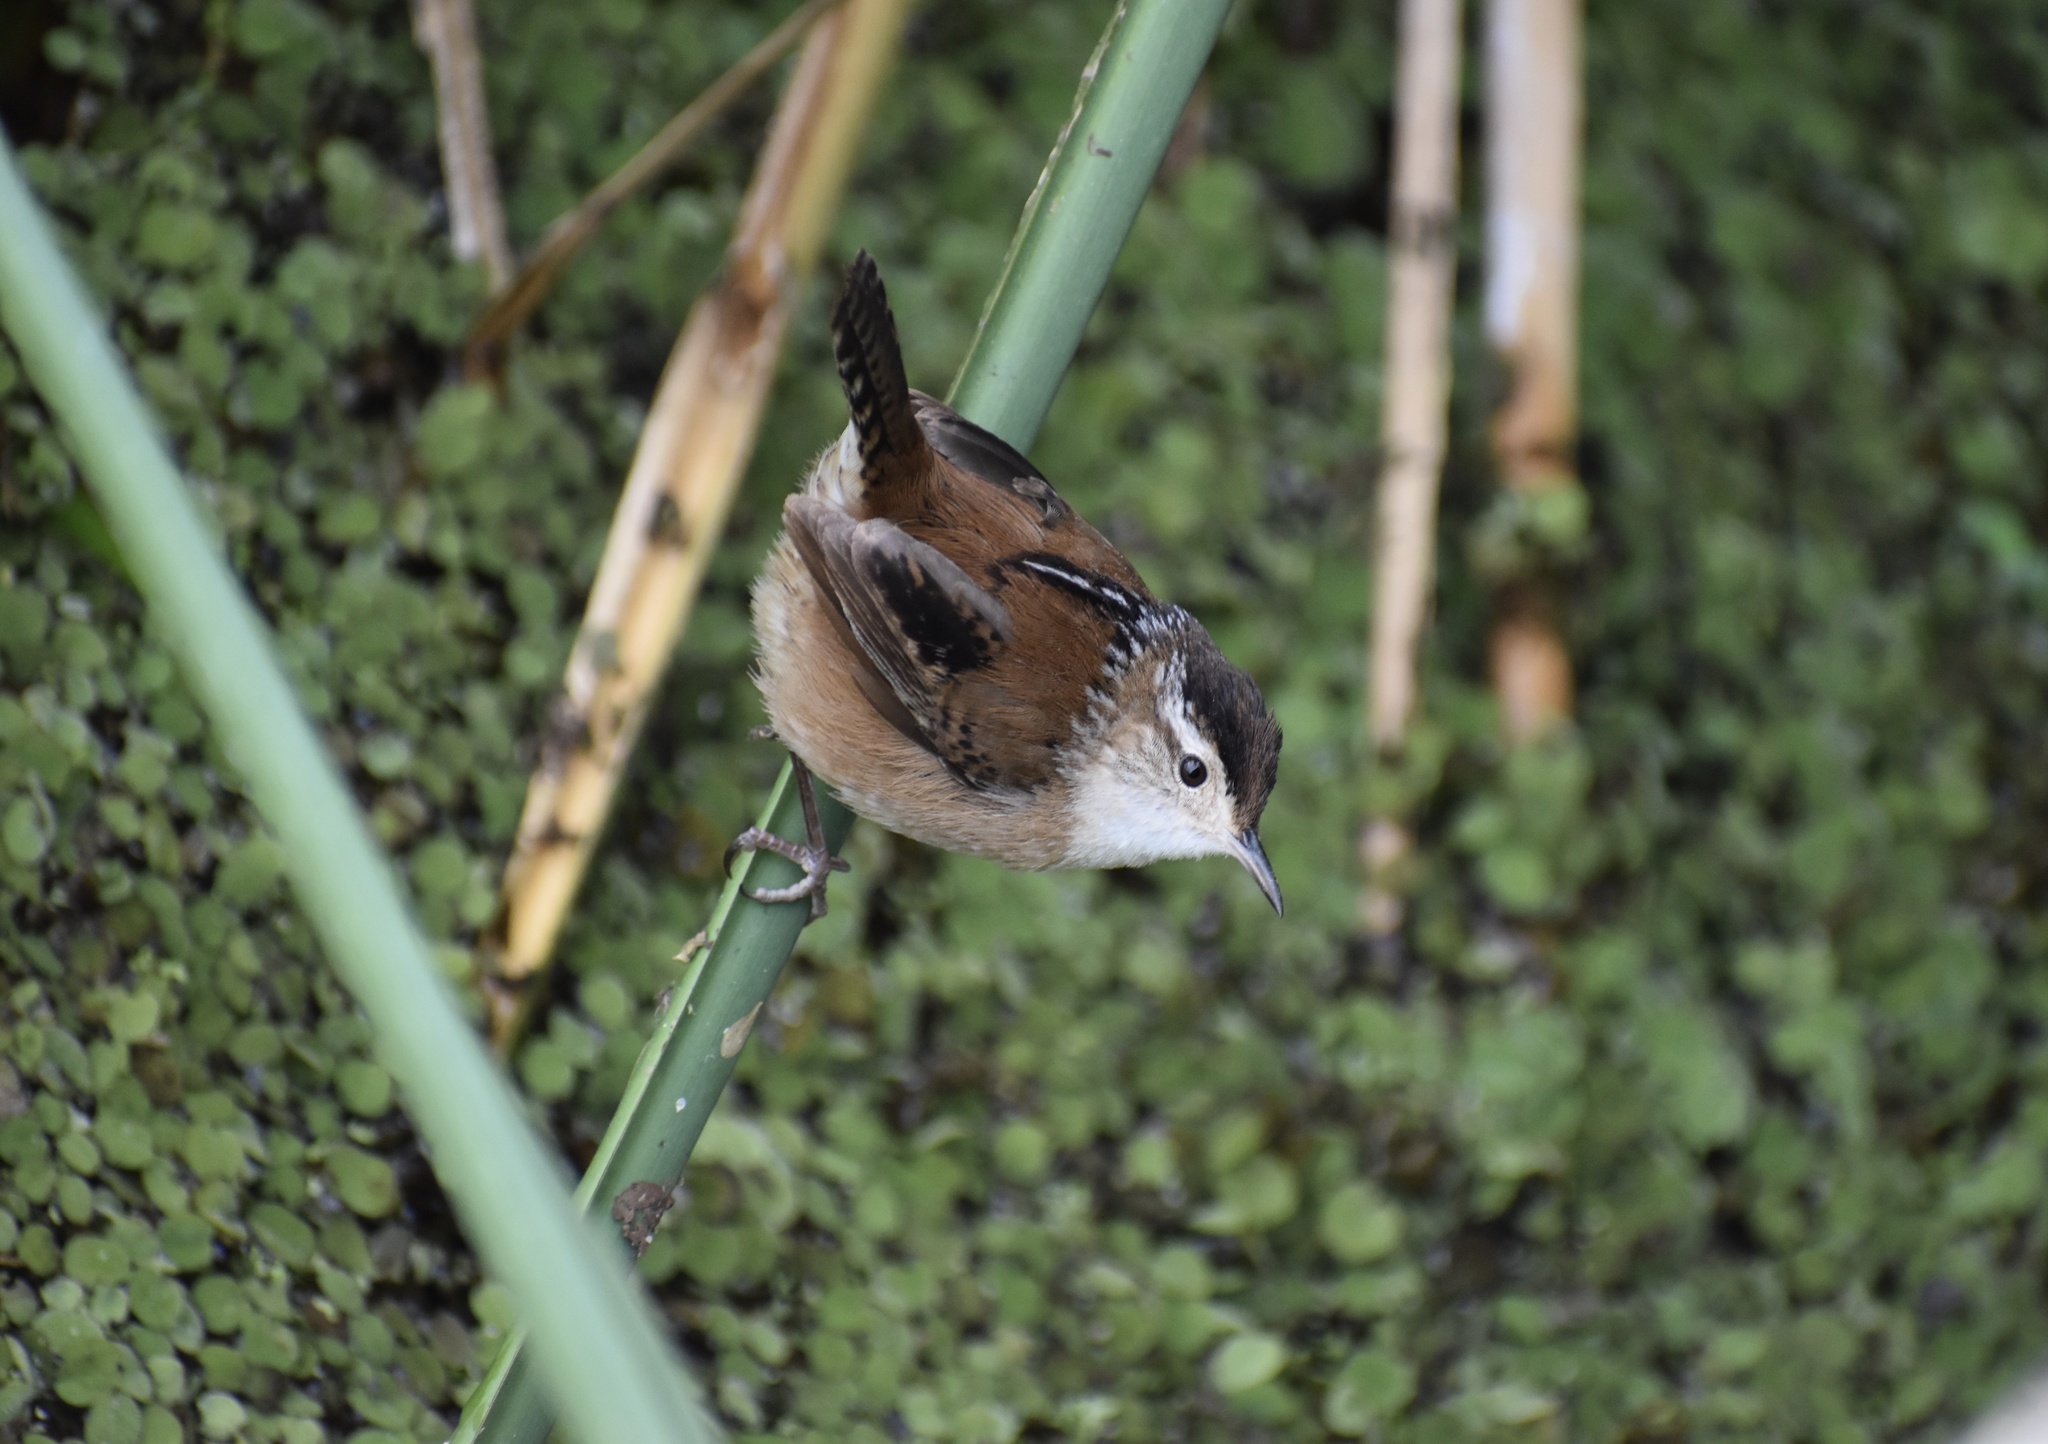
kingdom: Animalia
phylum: Chordata
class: Aves
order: Passeriformes
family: Troglodytidae
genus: Cistothorus
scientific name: Cistothorus palustris
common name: Marsh wren
